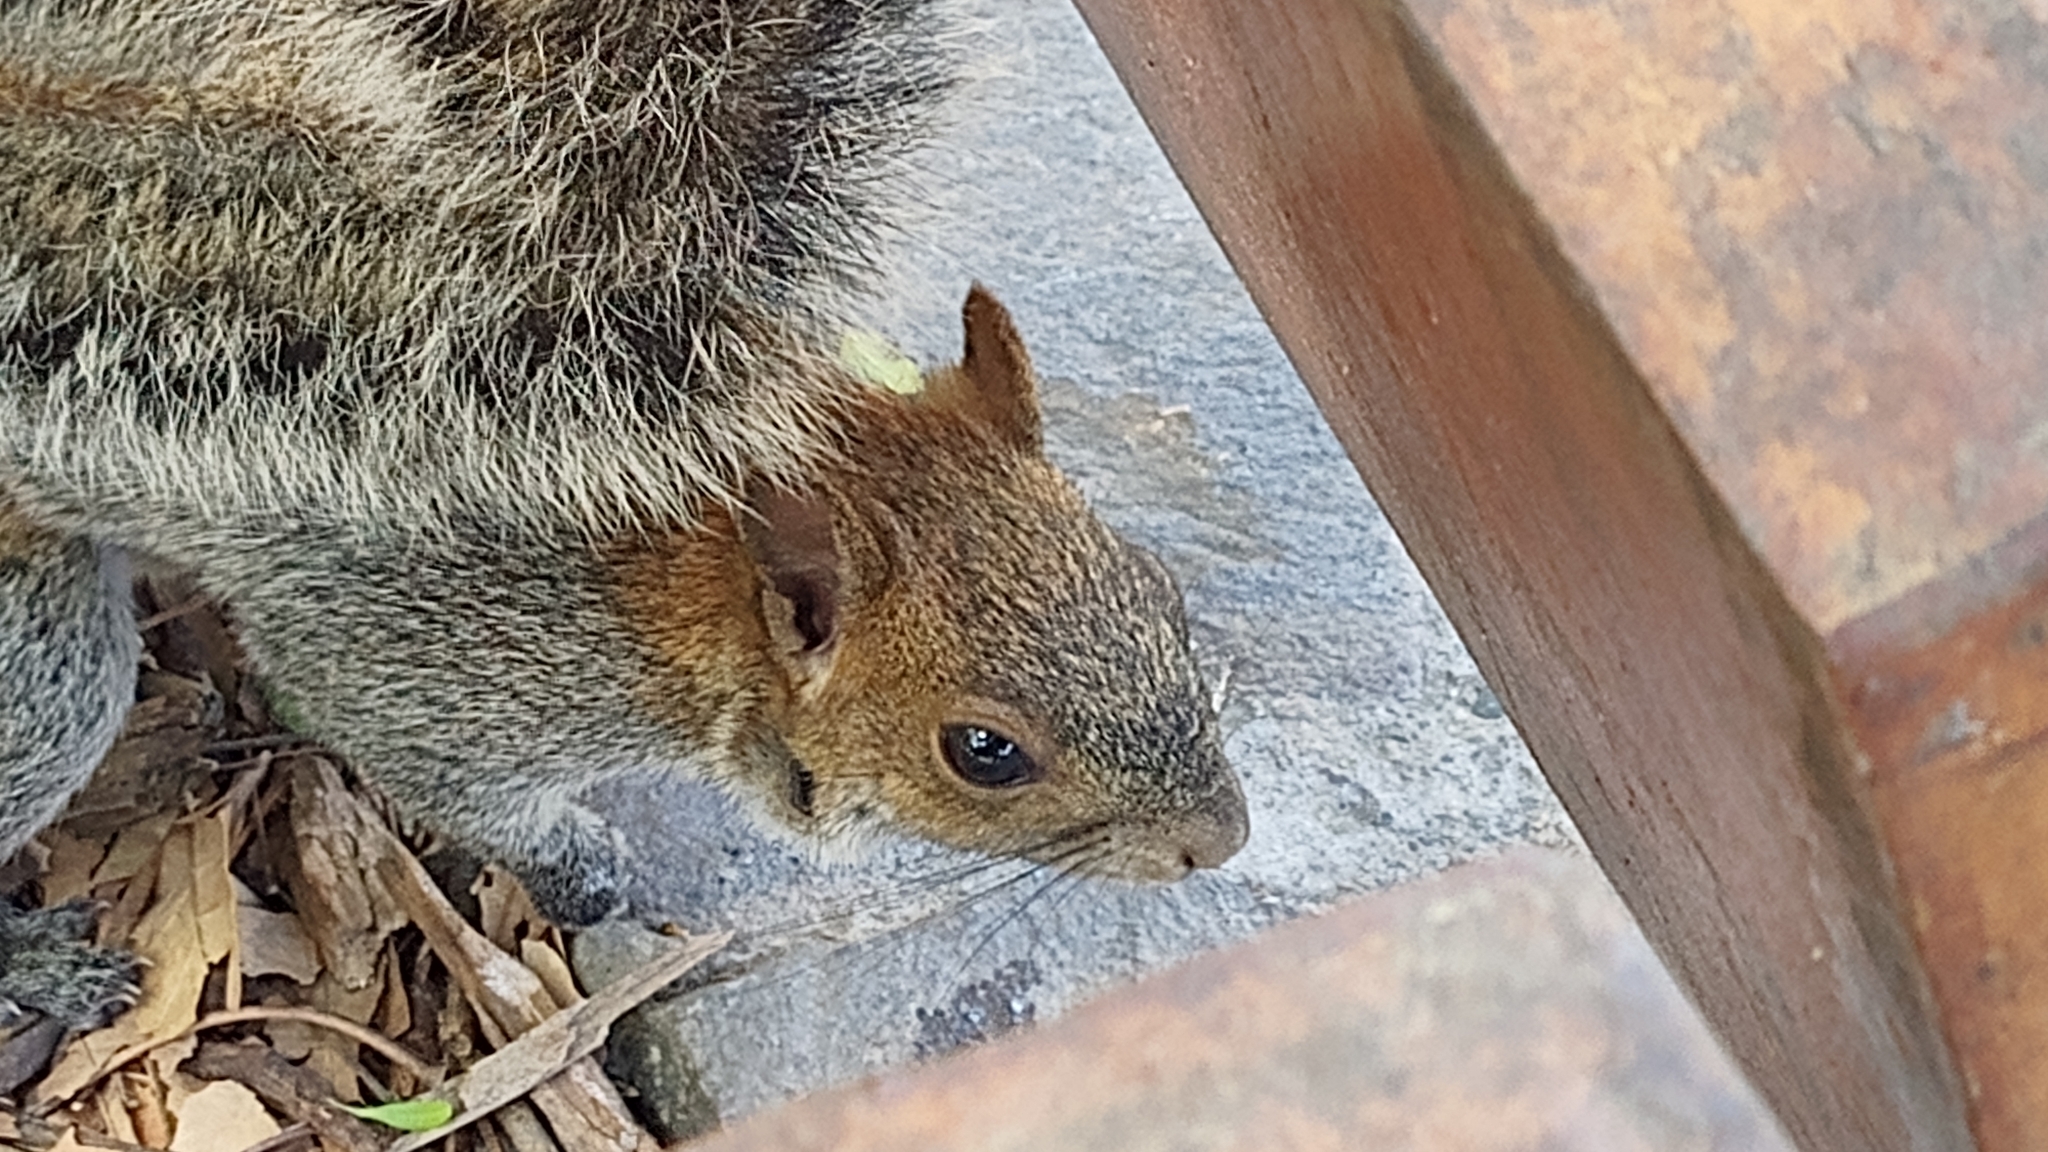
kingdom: Animalia
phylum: Chordata
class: Mammalia
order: Rodentia
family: Sciuridae
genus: Sciurus
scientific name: Sciurus aureogaster
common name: Red-bellied squirrel
